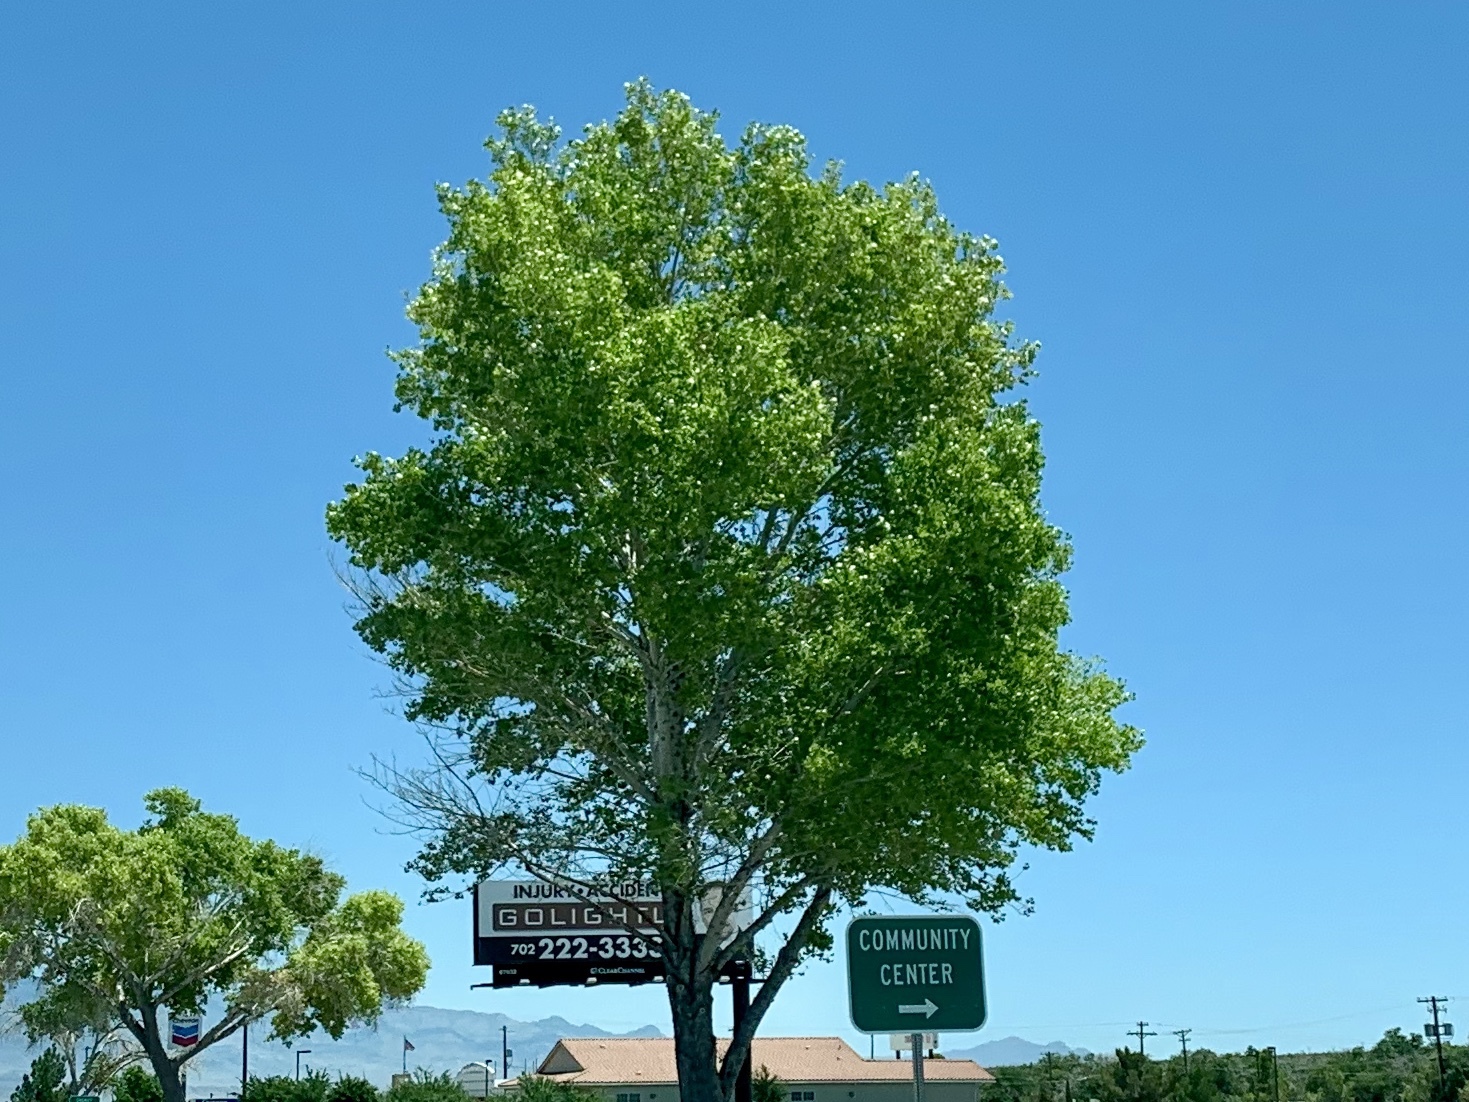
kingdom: Plantae
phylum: Tracheophyta
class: Magnoliopsida
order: Malpighiales
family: Salicaceae
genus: Populus
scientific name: Populus fremontii
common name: Fremont's cottonwood
